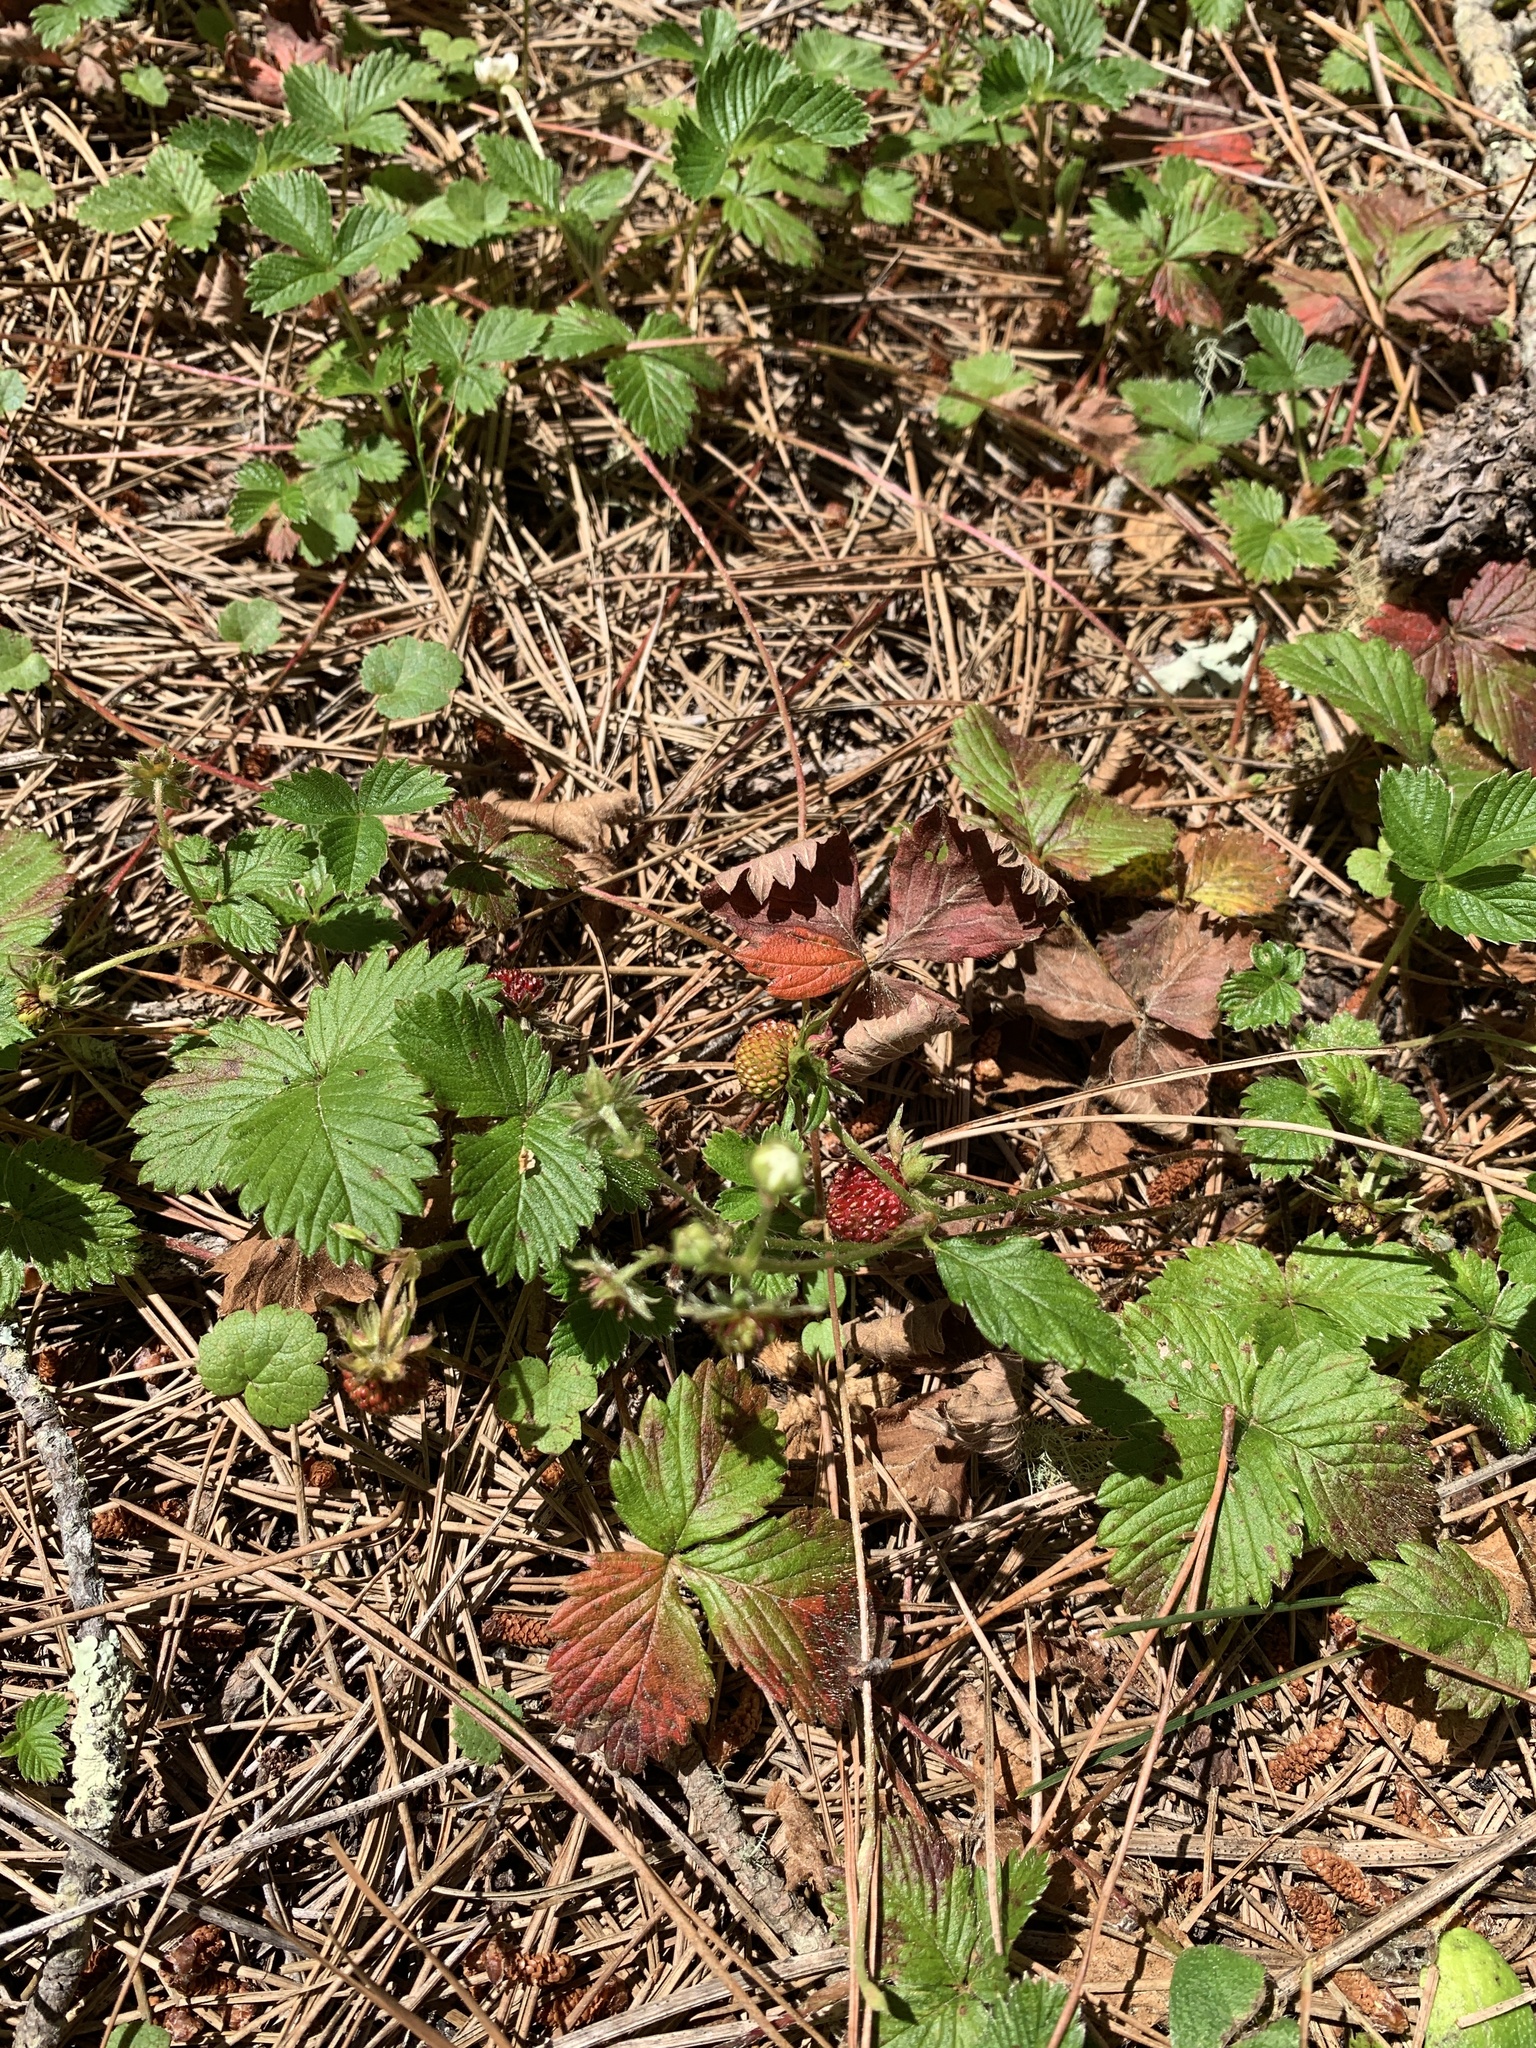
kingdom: Plantae
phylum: Tracheophyta
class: Magnoliopsida
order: Rosales
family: Rosaceae
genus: Fragaria
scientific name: Fragaria vesca
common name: Wild strawberry
